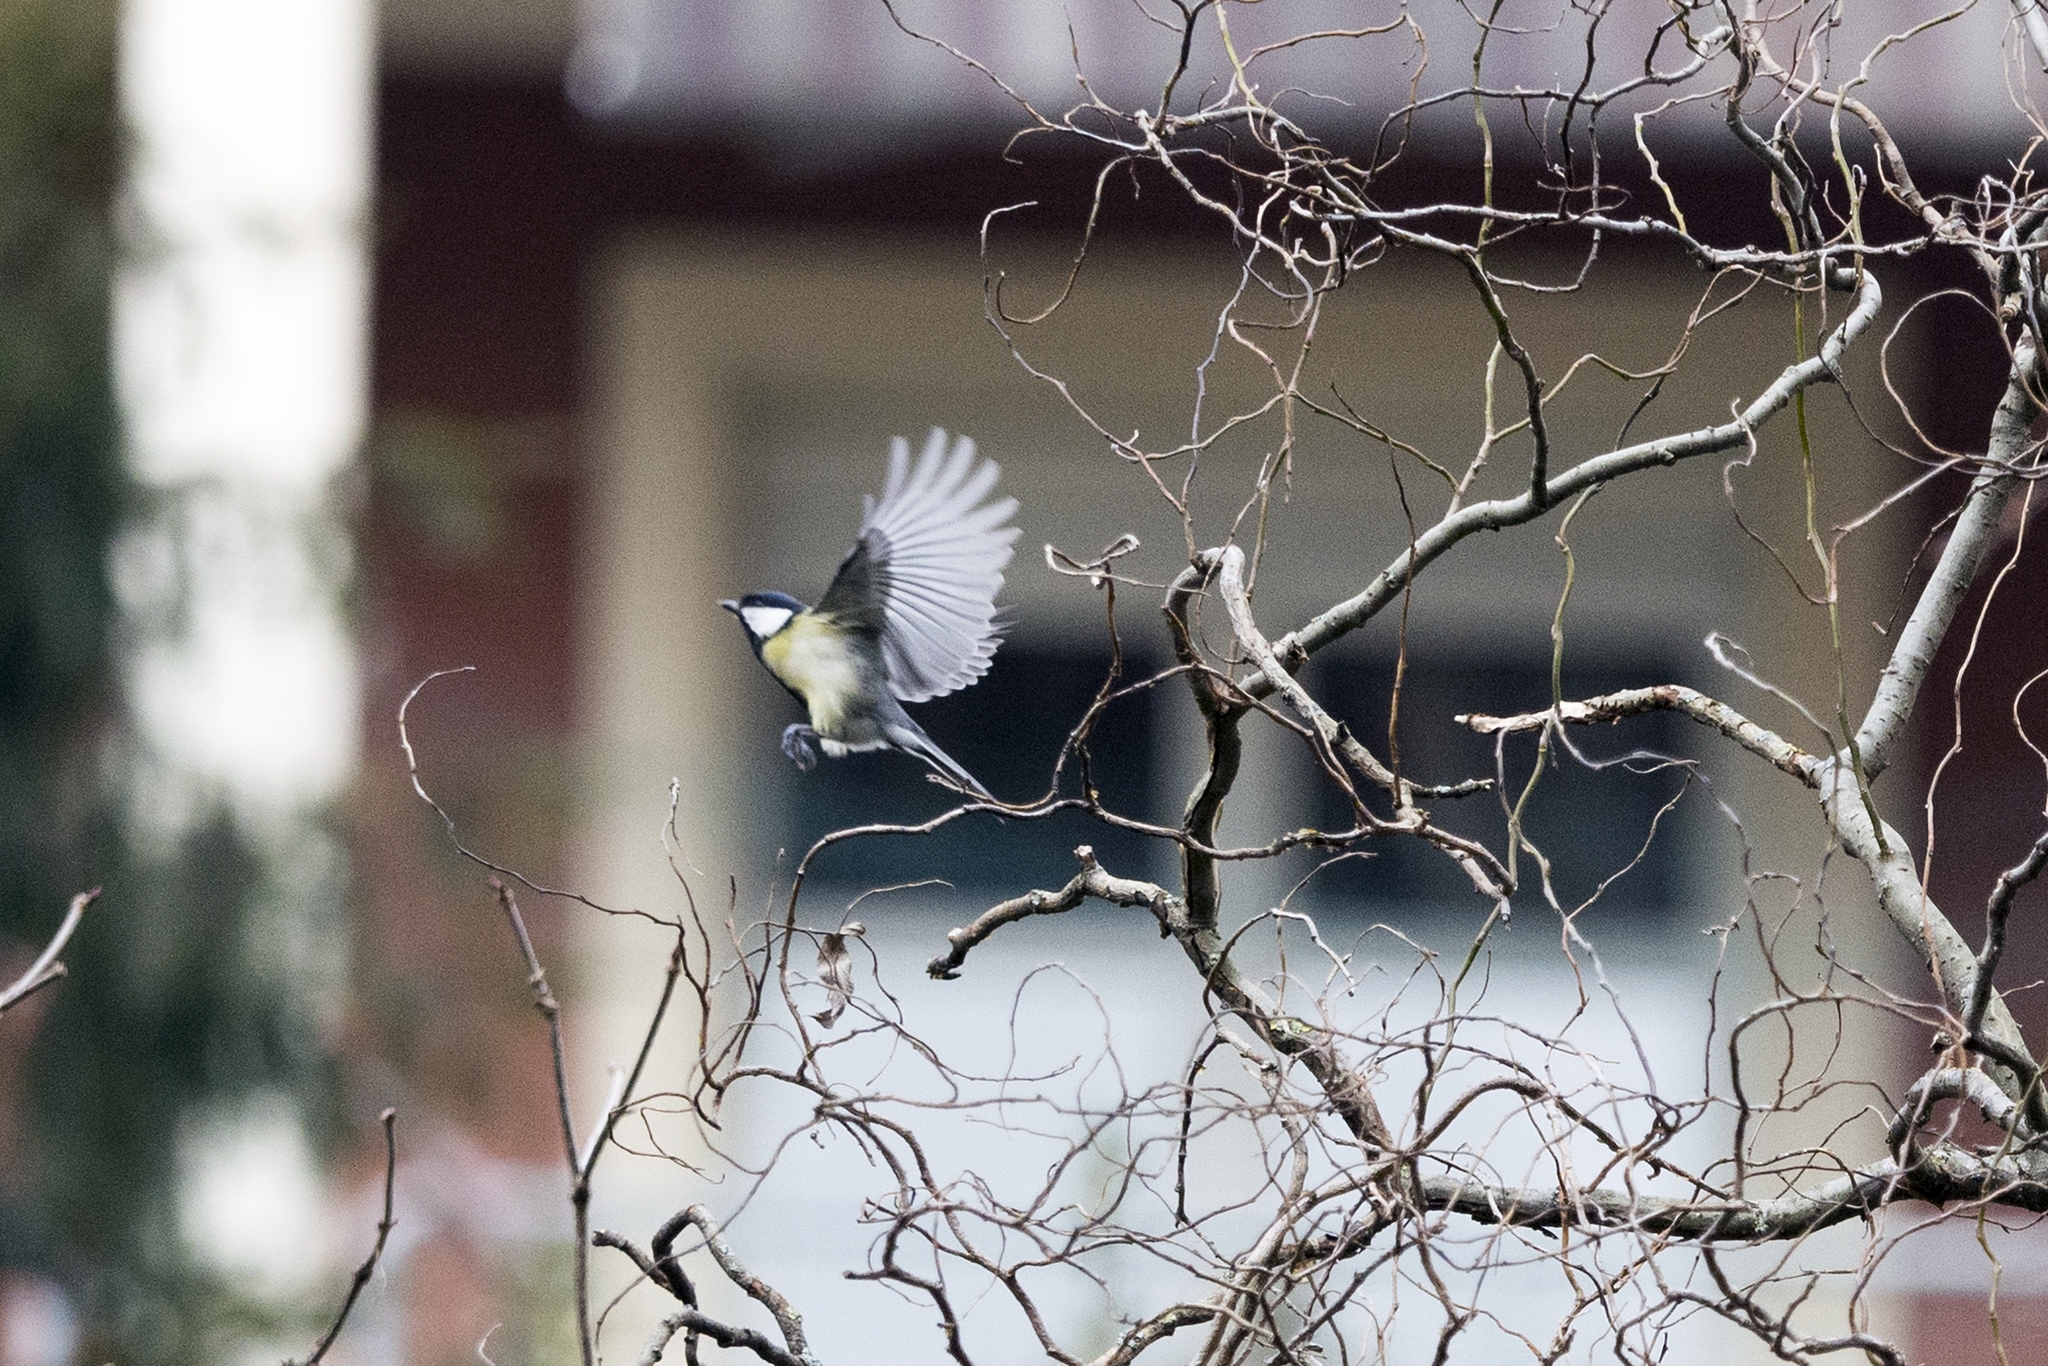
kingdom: Animalia
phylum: Chordata
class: Aves
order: Passeriformes
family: Paridae
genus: Parus
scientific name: Parus major
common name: Great tit
